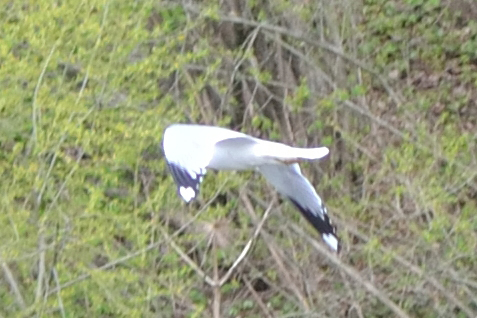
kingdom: Animalia
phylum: Chordata
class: Aves
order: Charadriiformes
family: Laridae
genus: Larus
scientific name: Larus canus
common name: Mew gull
